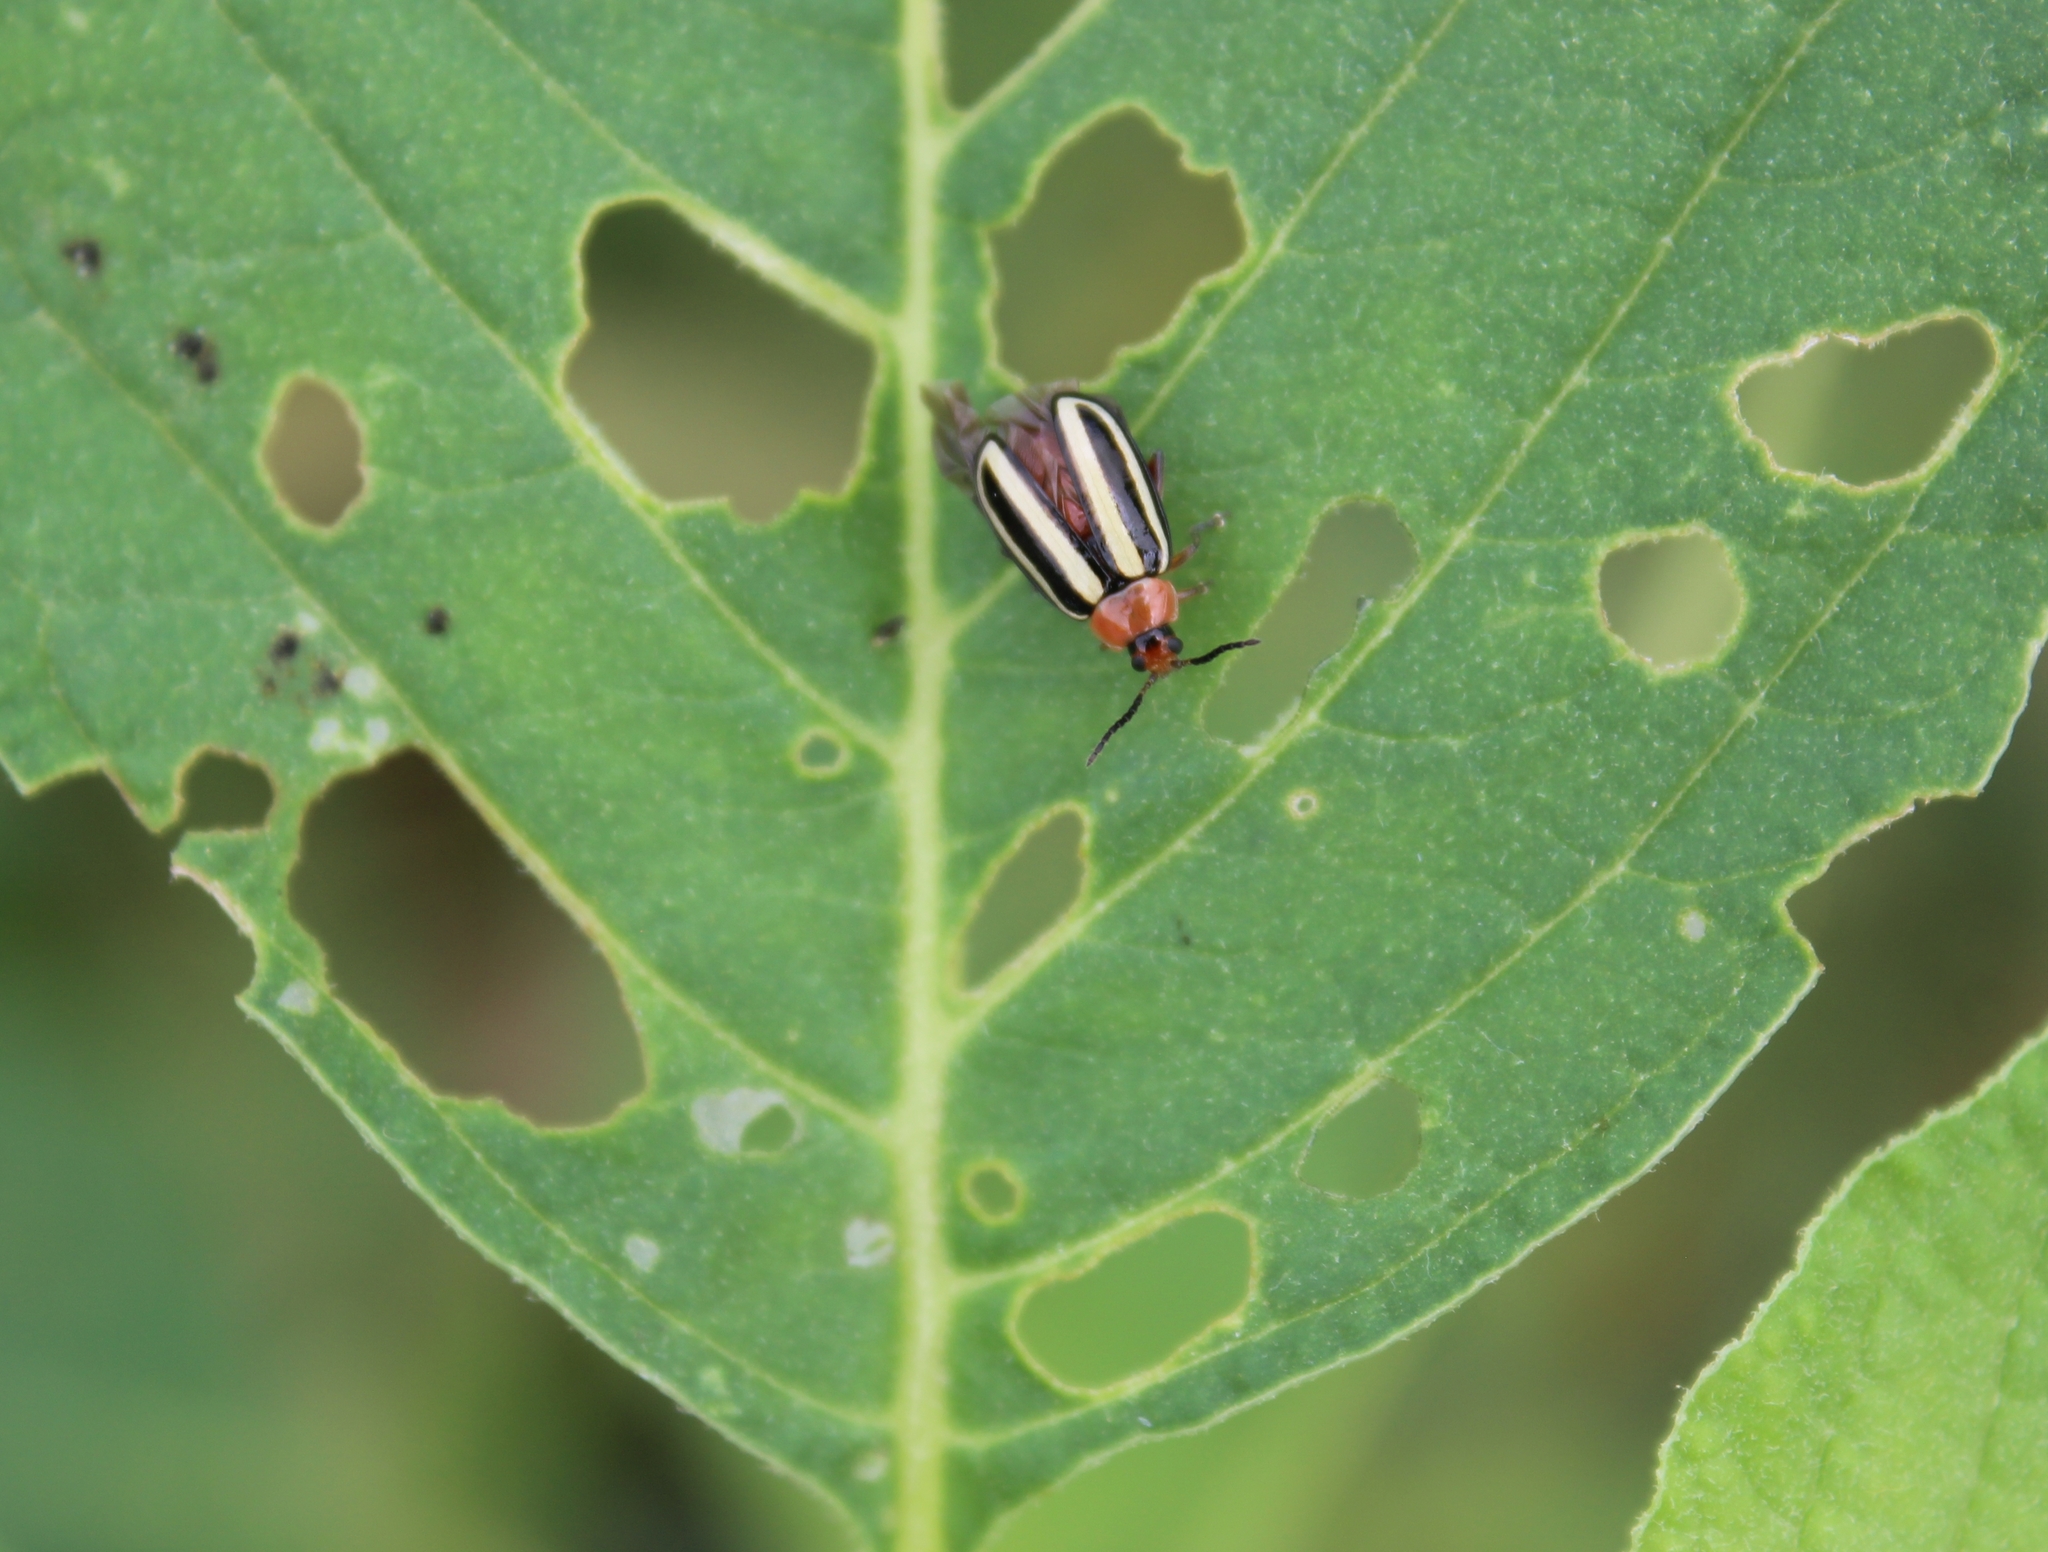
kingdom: Animalia
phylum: Arthropoda
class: Insecta
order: Coleoptera
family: Chrysomelidae
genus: Disonycha
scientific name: Disonycha glabrata
